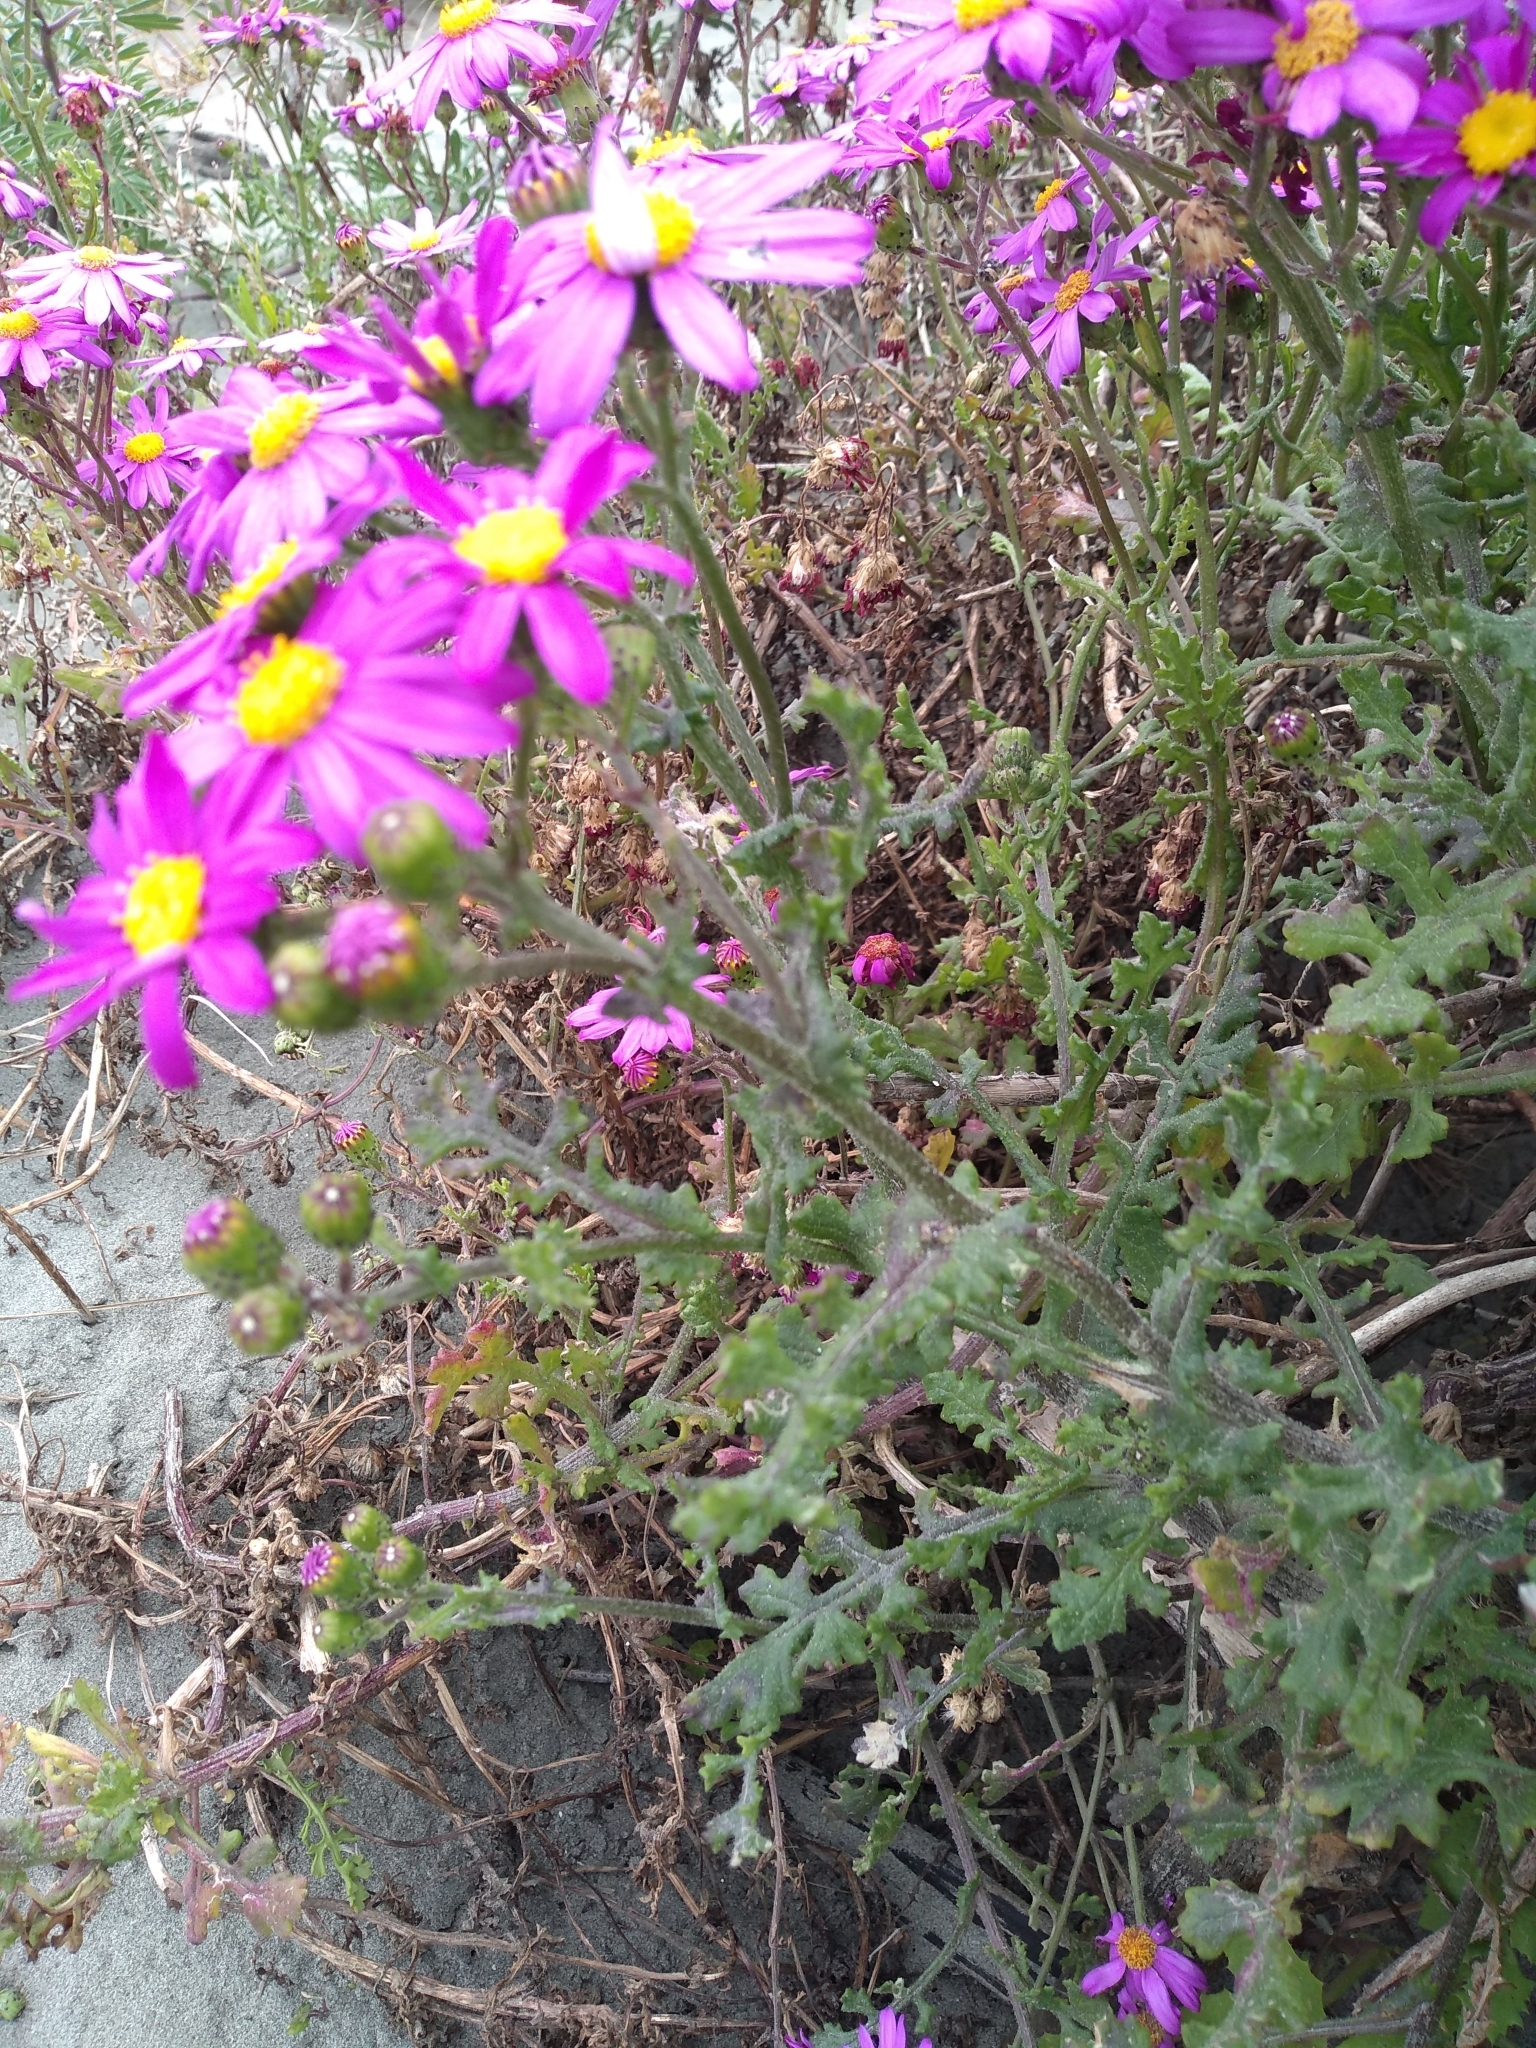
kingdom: Plantae
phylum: Tracheophyta
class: Magnoliopsida
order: Asterales
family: Asteraceae
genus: Senecio
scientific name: Senecio elegans
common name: Purple groundsel
